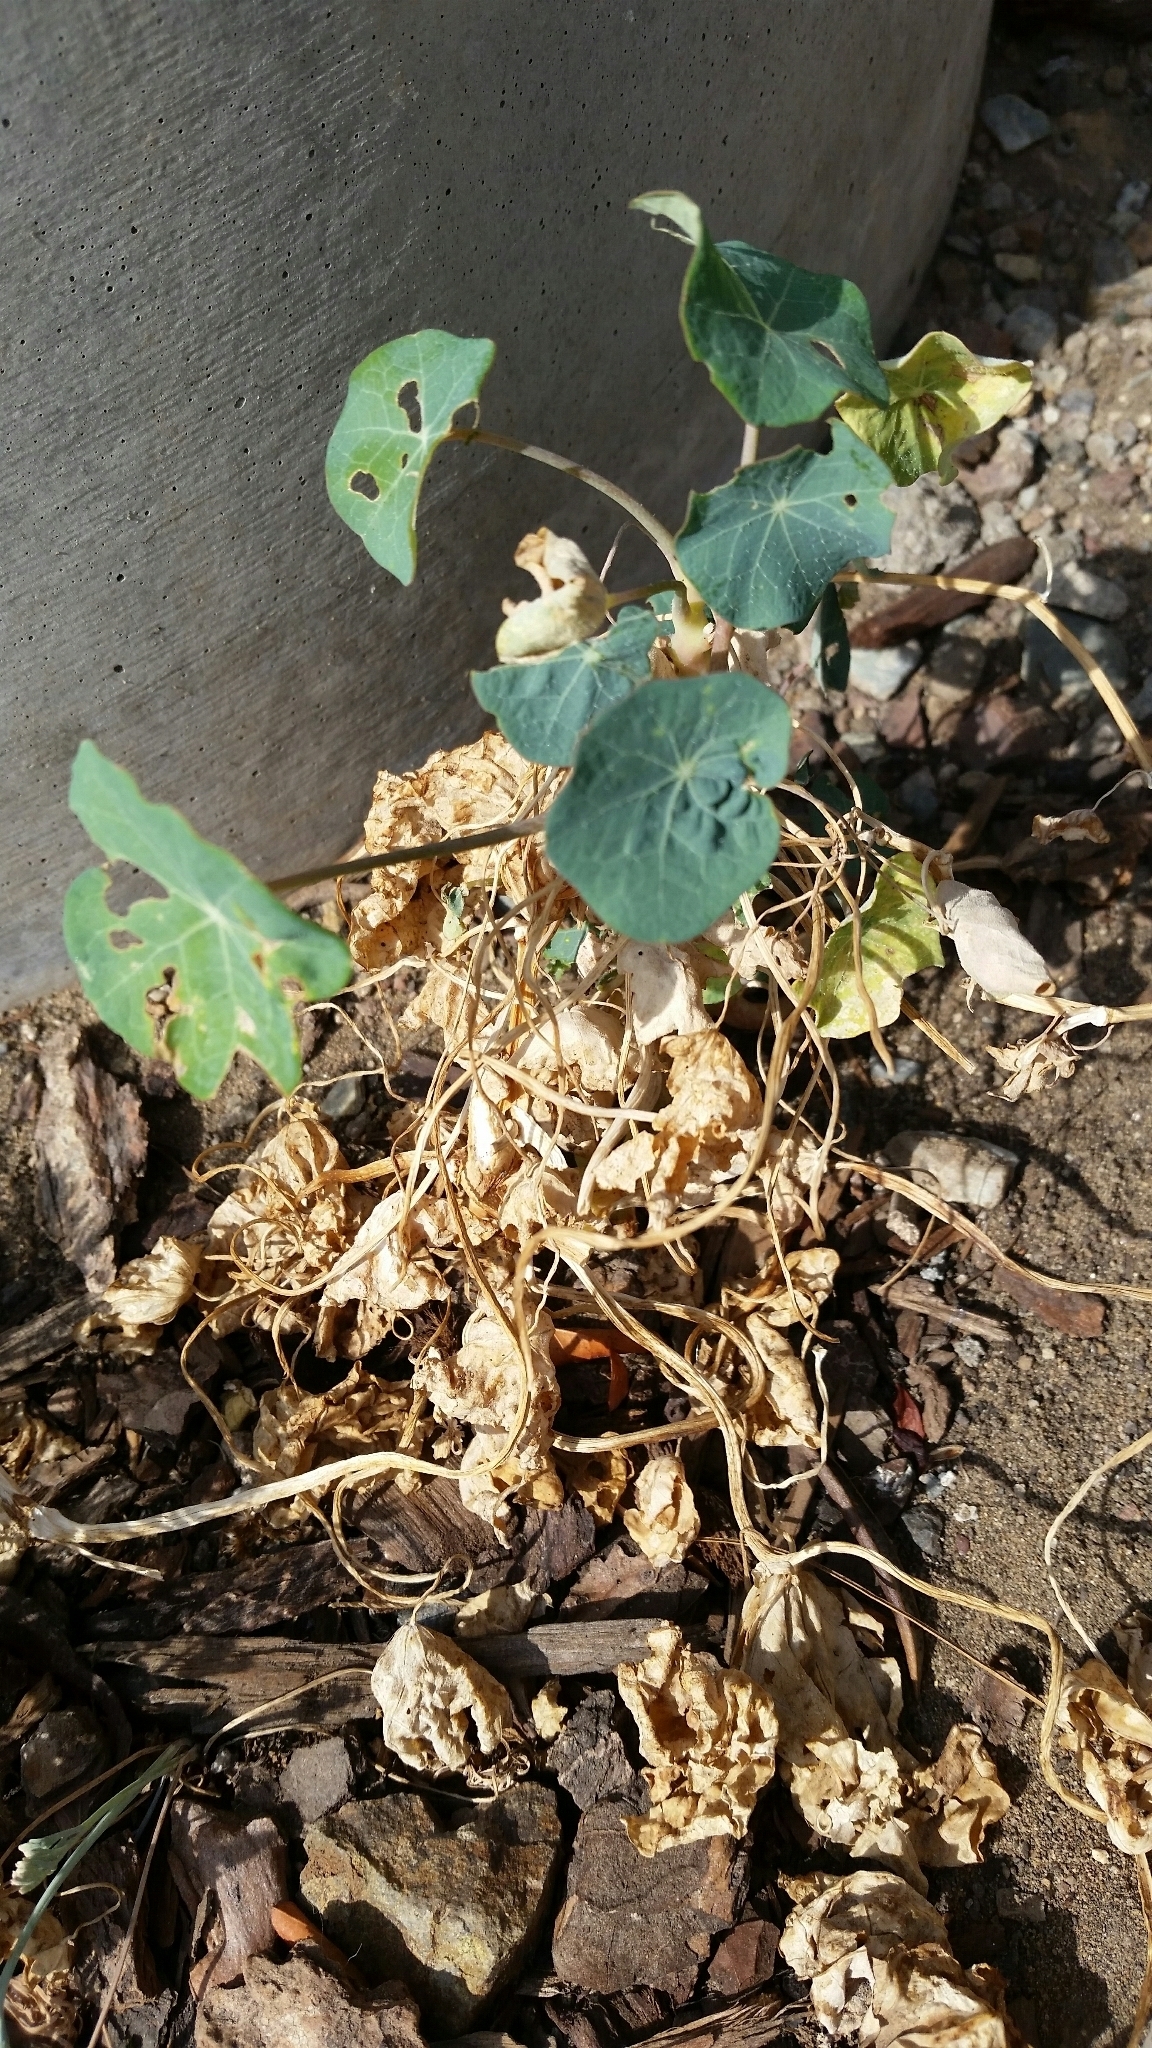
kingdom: Plantae
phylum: Tracheophyta
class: Magnoliopsida
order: Brassicales
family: Tropaeolaceae
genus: Tropaeolum
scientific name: Tropaeolum majus
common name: Nasturtium
